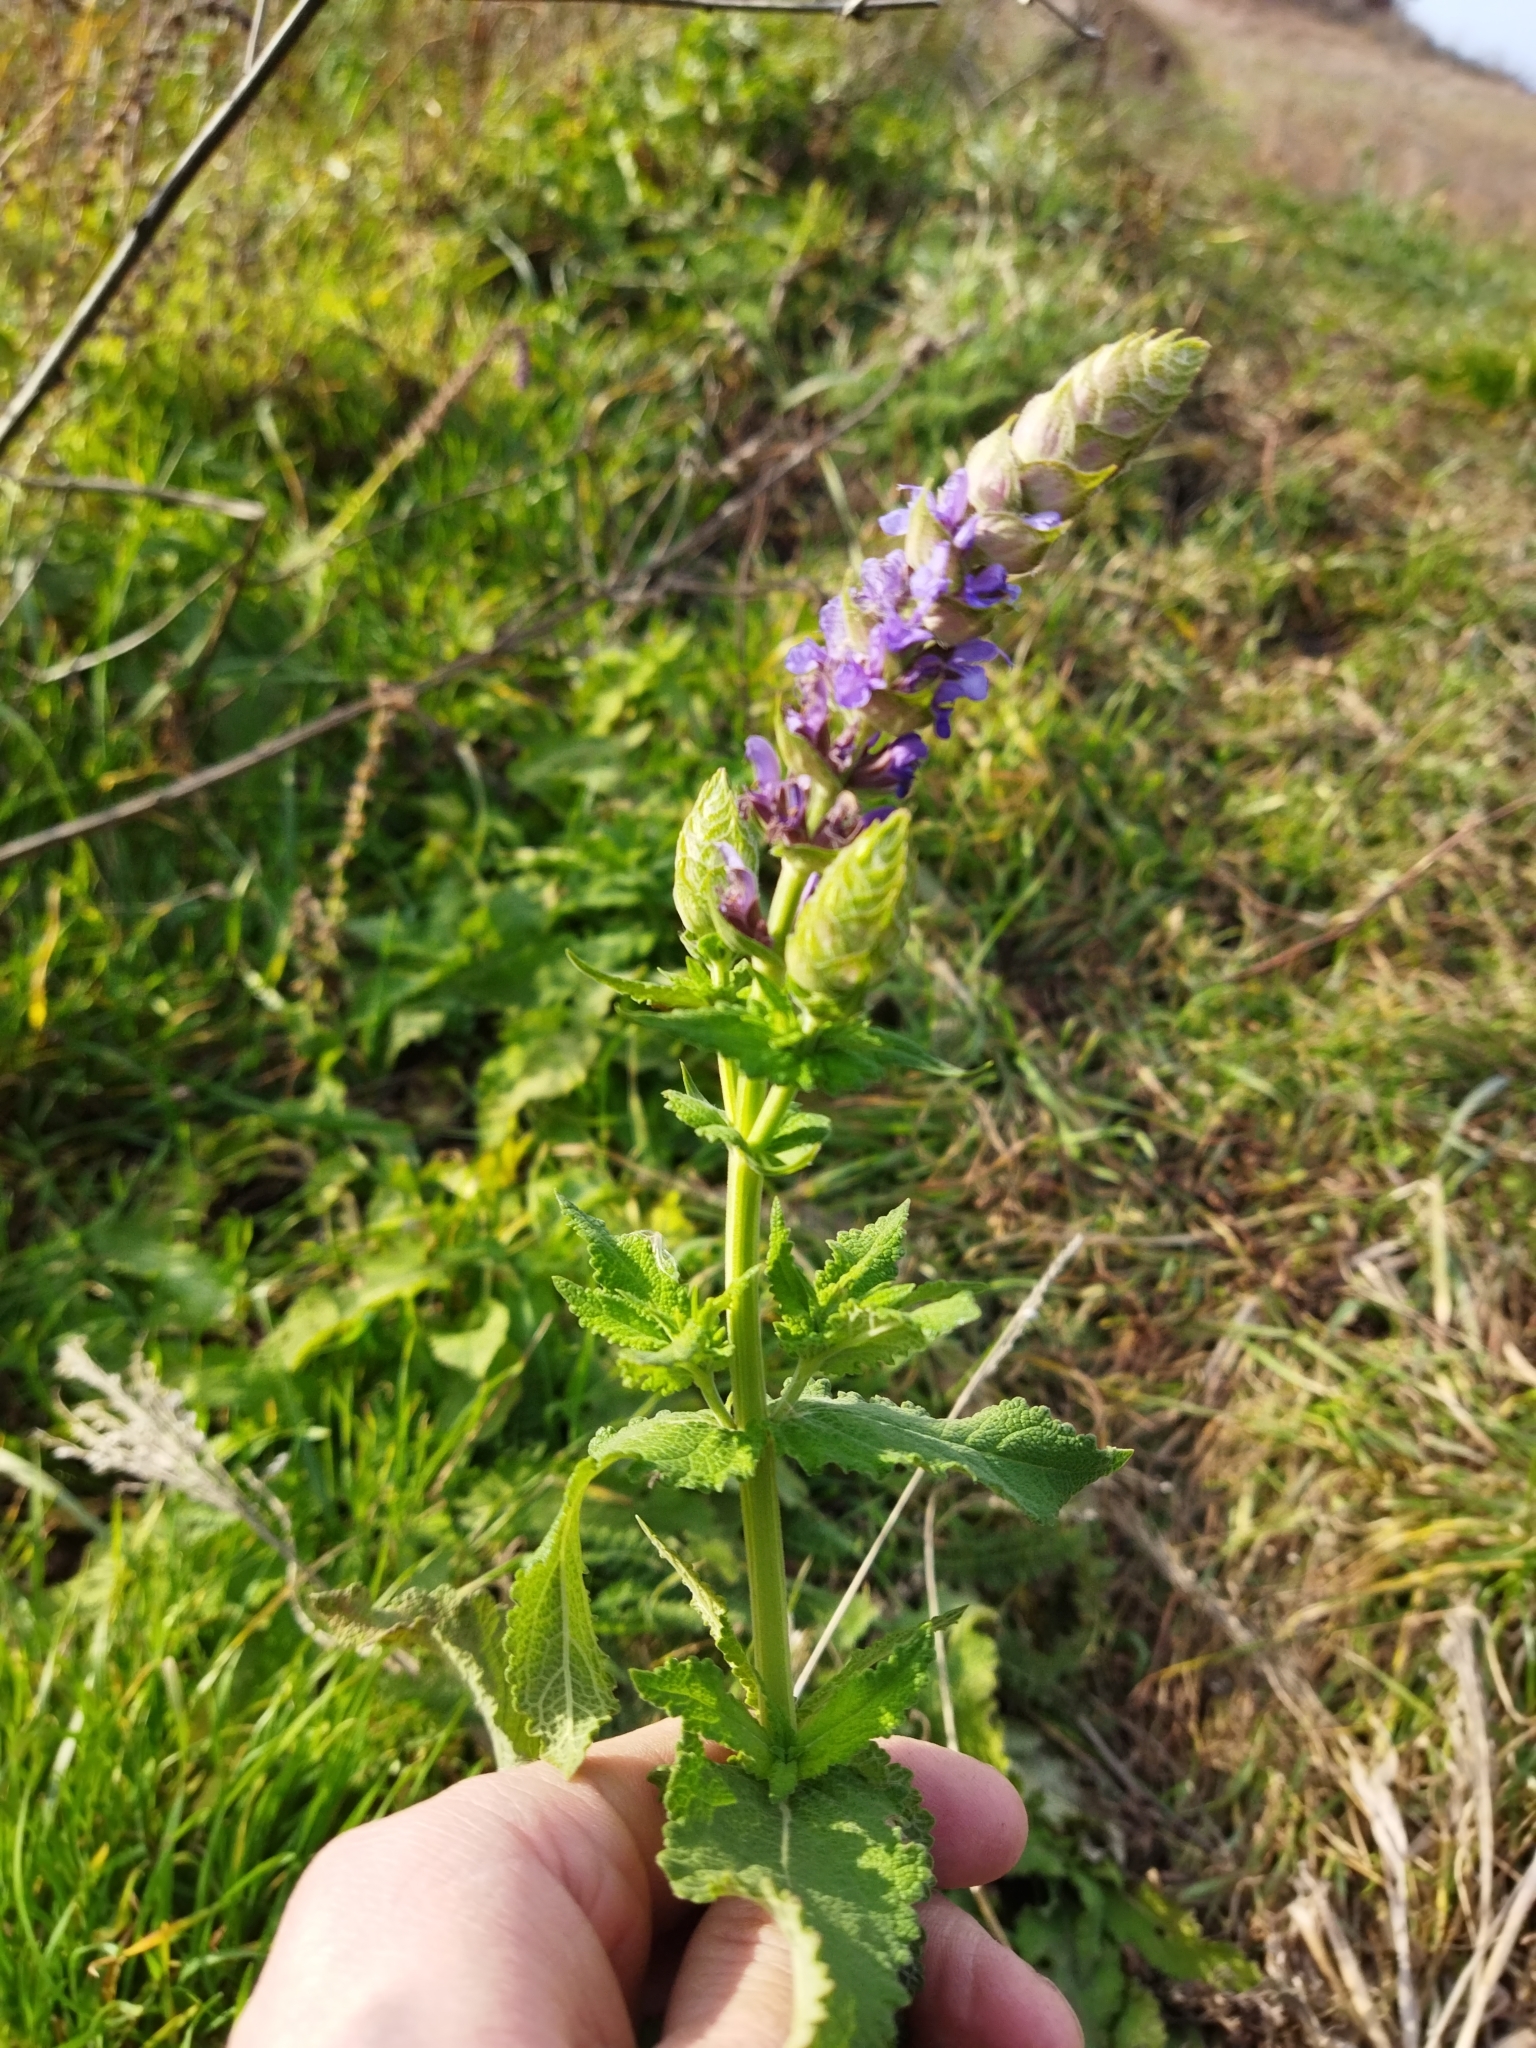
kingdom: Plantae
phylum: Tracheophyta
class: Magnoliopsida
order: Lamiales
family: Lamiaceae
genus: Salvia
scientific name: Salvia nemorosa
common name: Balkan clary
